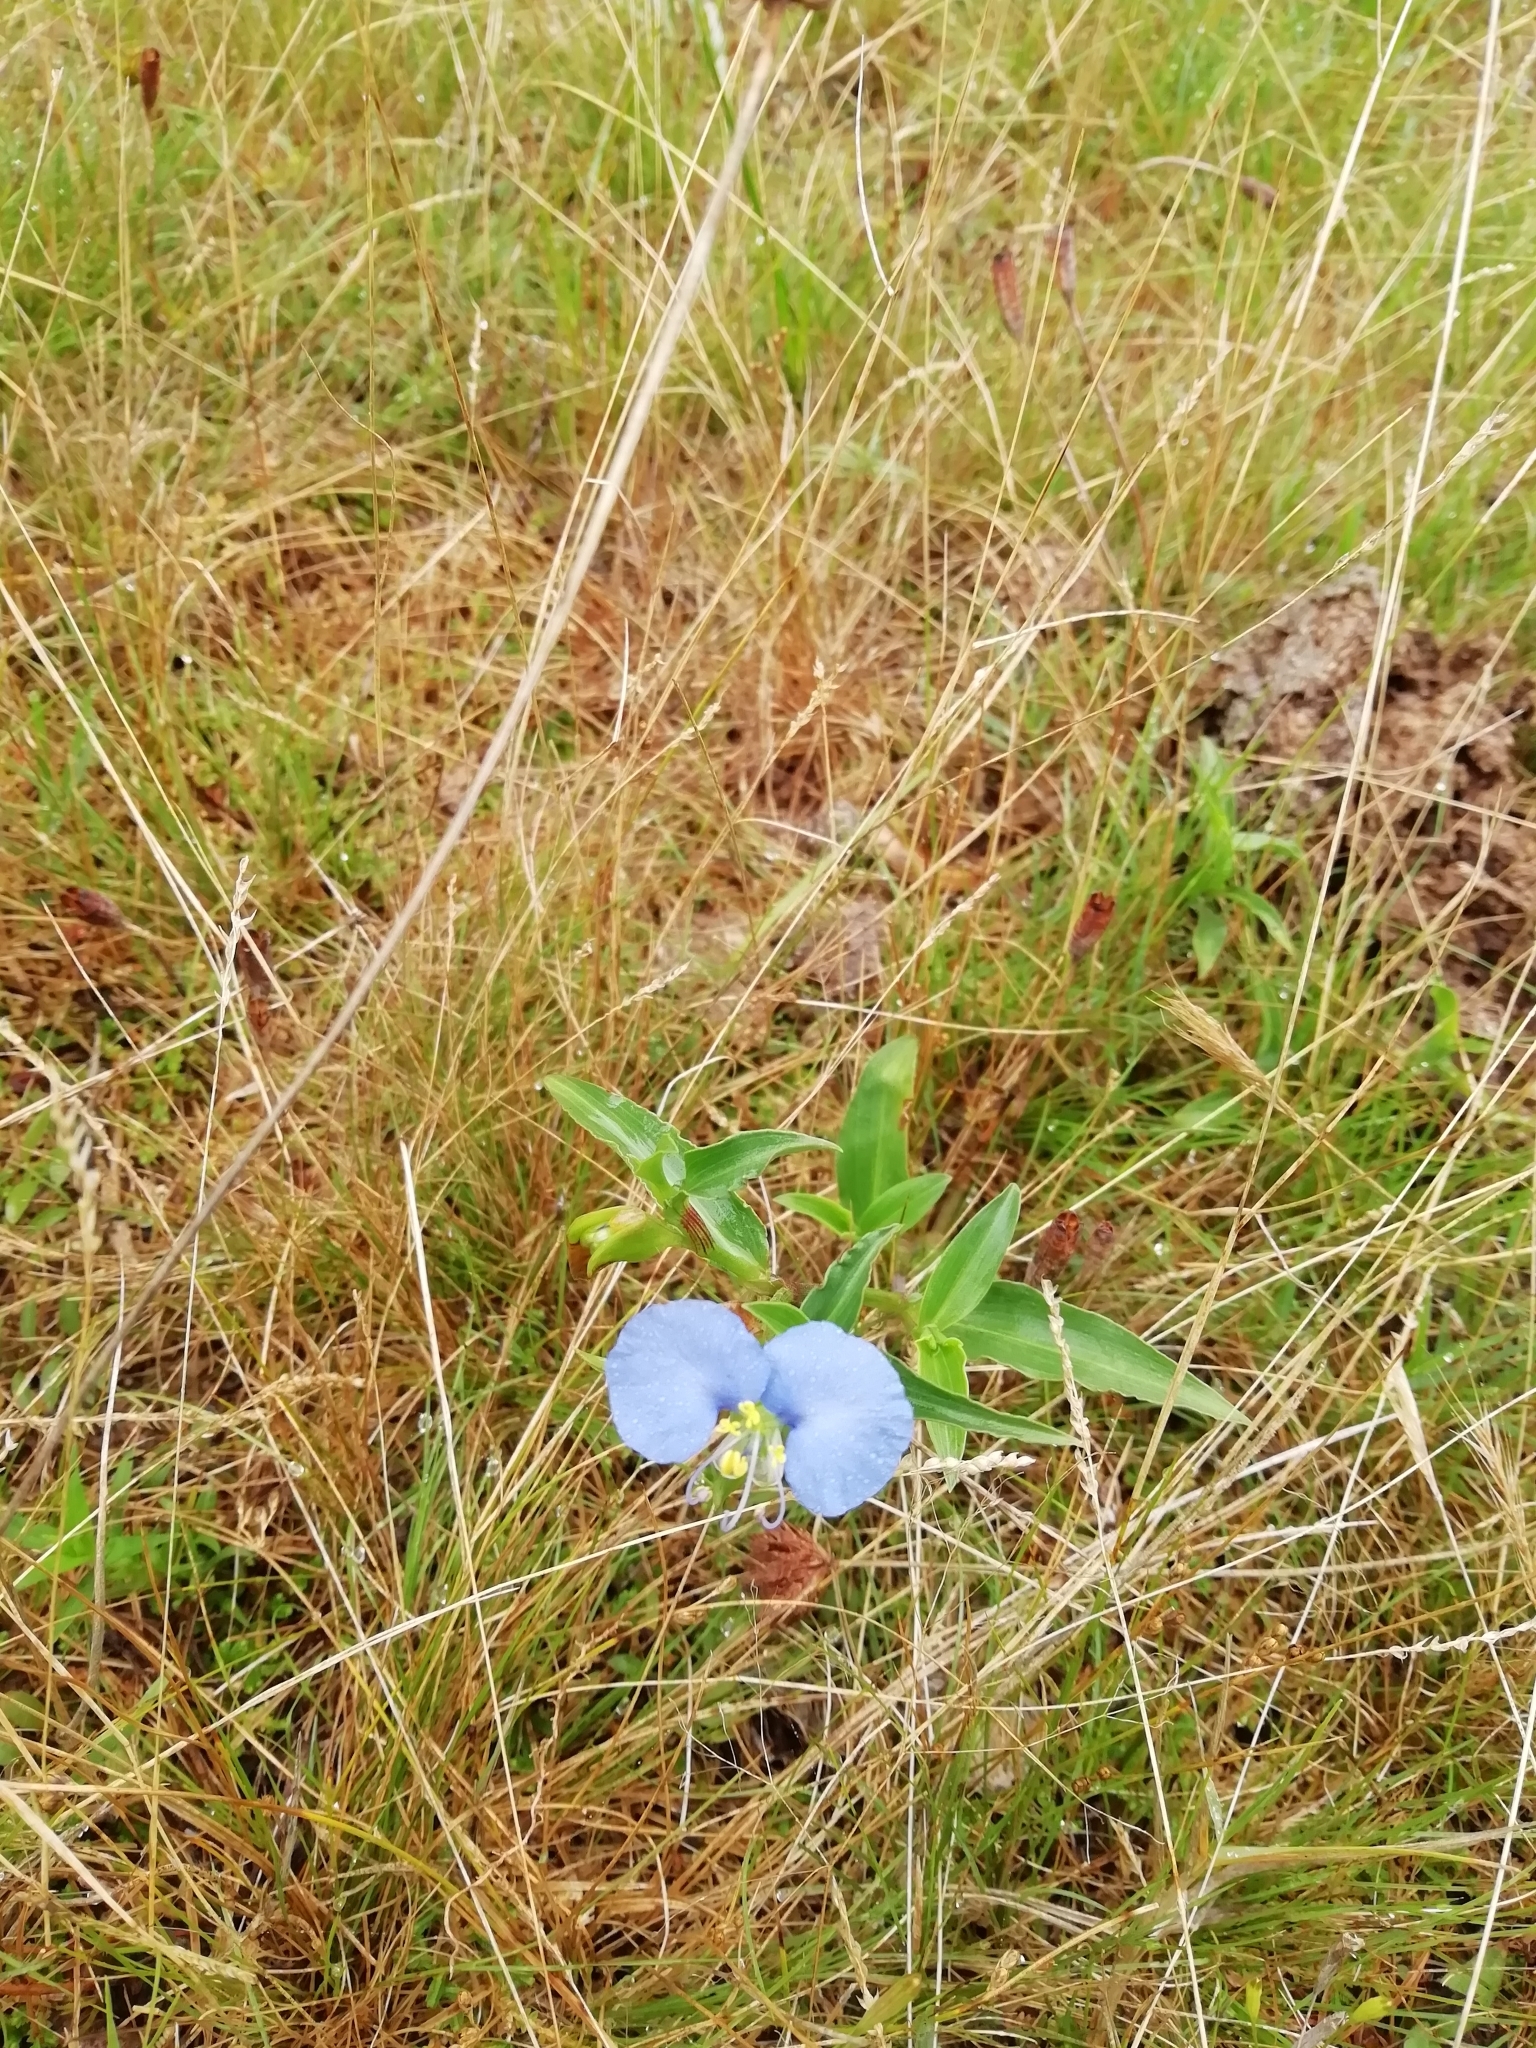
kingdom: Plantae
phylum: Tracheophyta
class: Liliopsida
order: Commelinales
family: Commelinaceae
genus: Commelina
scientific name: Commelina erecta
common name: Blousel blommetjie
